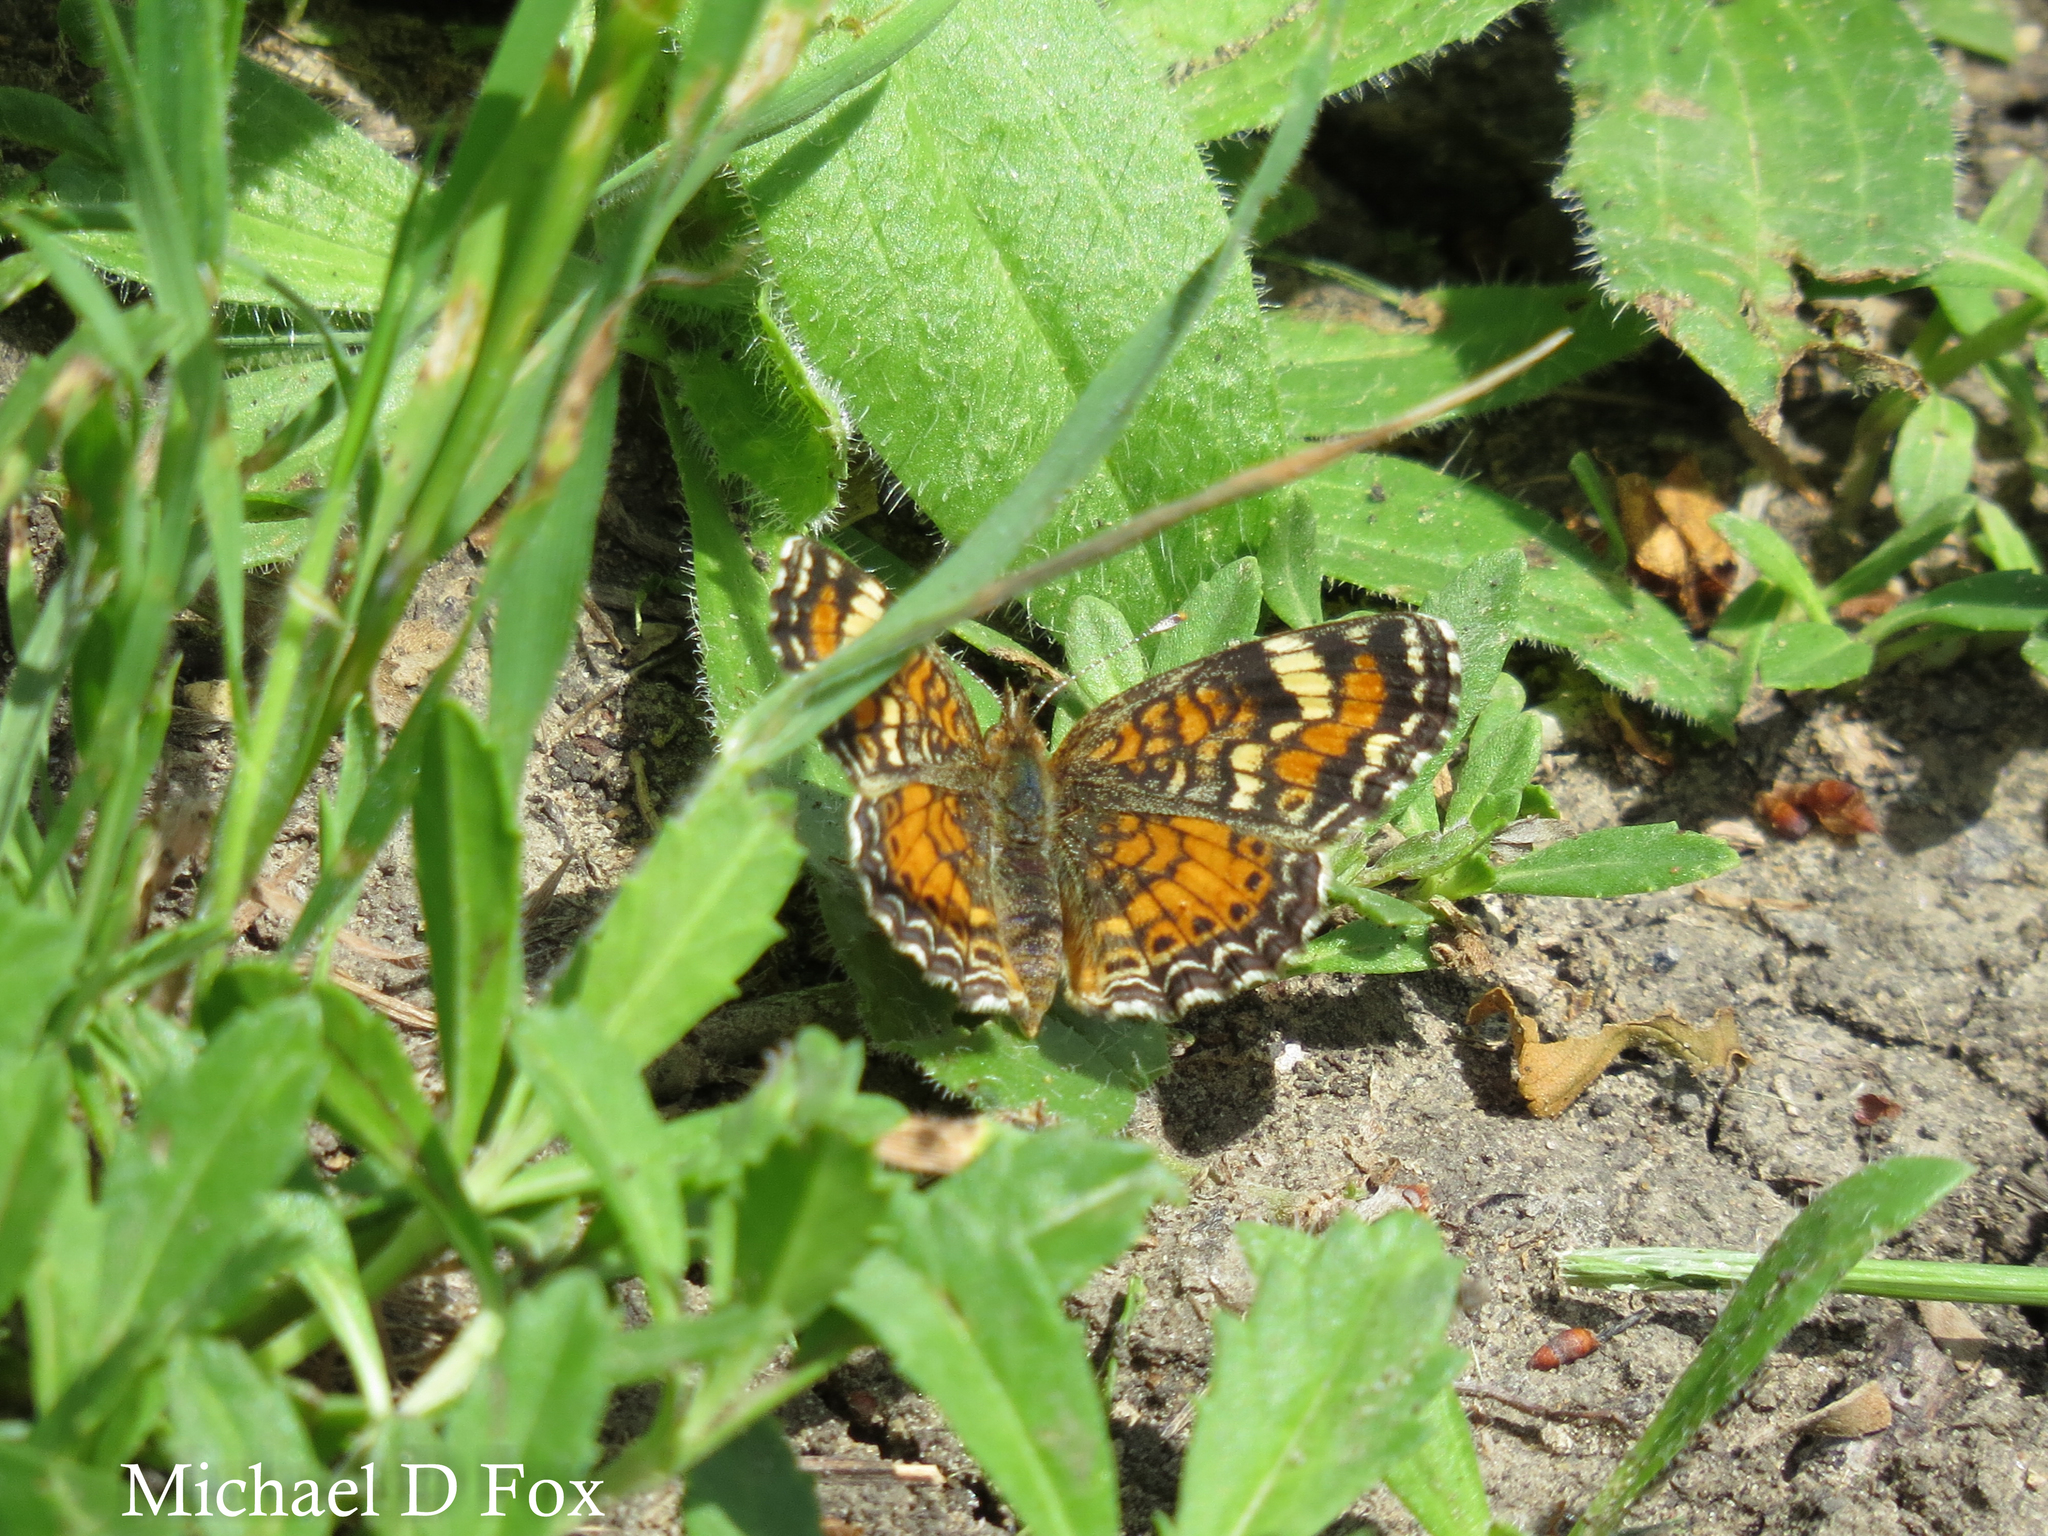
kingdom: Animalia
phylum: Arthropoda
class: Insecta
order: Lepidoptera
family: Nymphalidae
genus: Phyciodes
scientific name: Phyciodes phaon
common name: Phaon crescent
